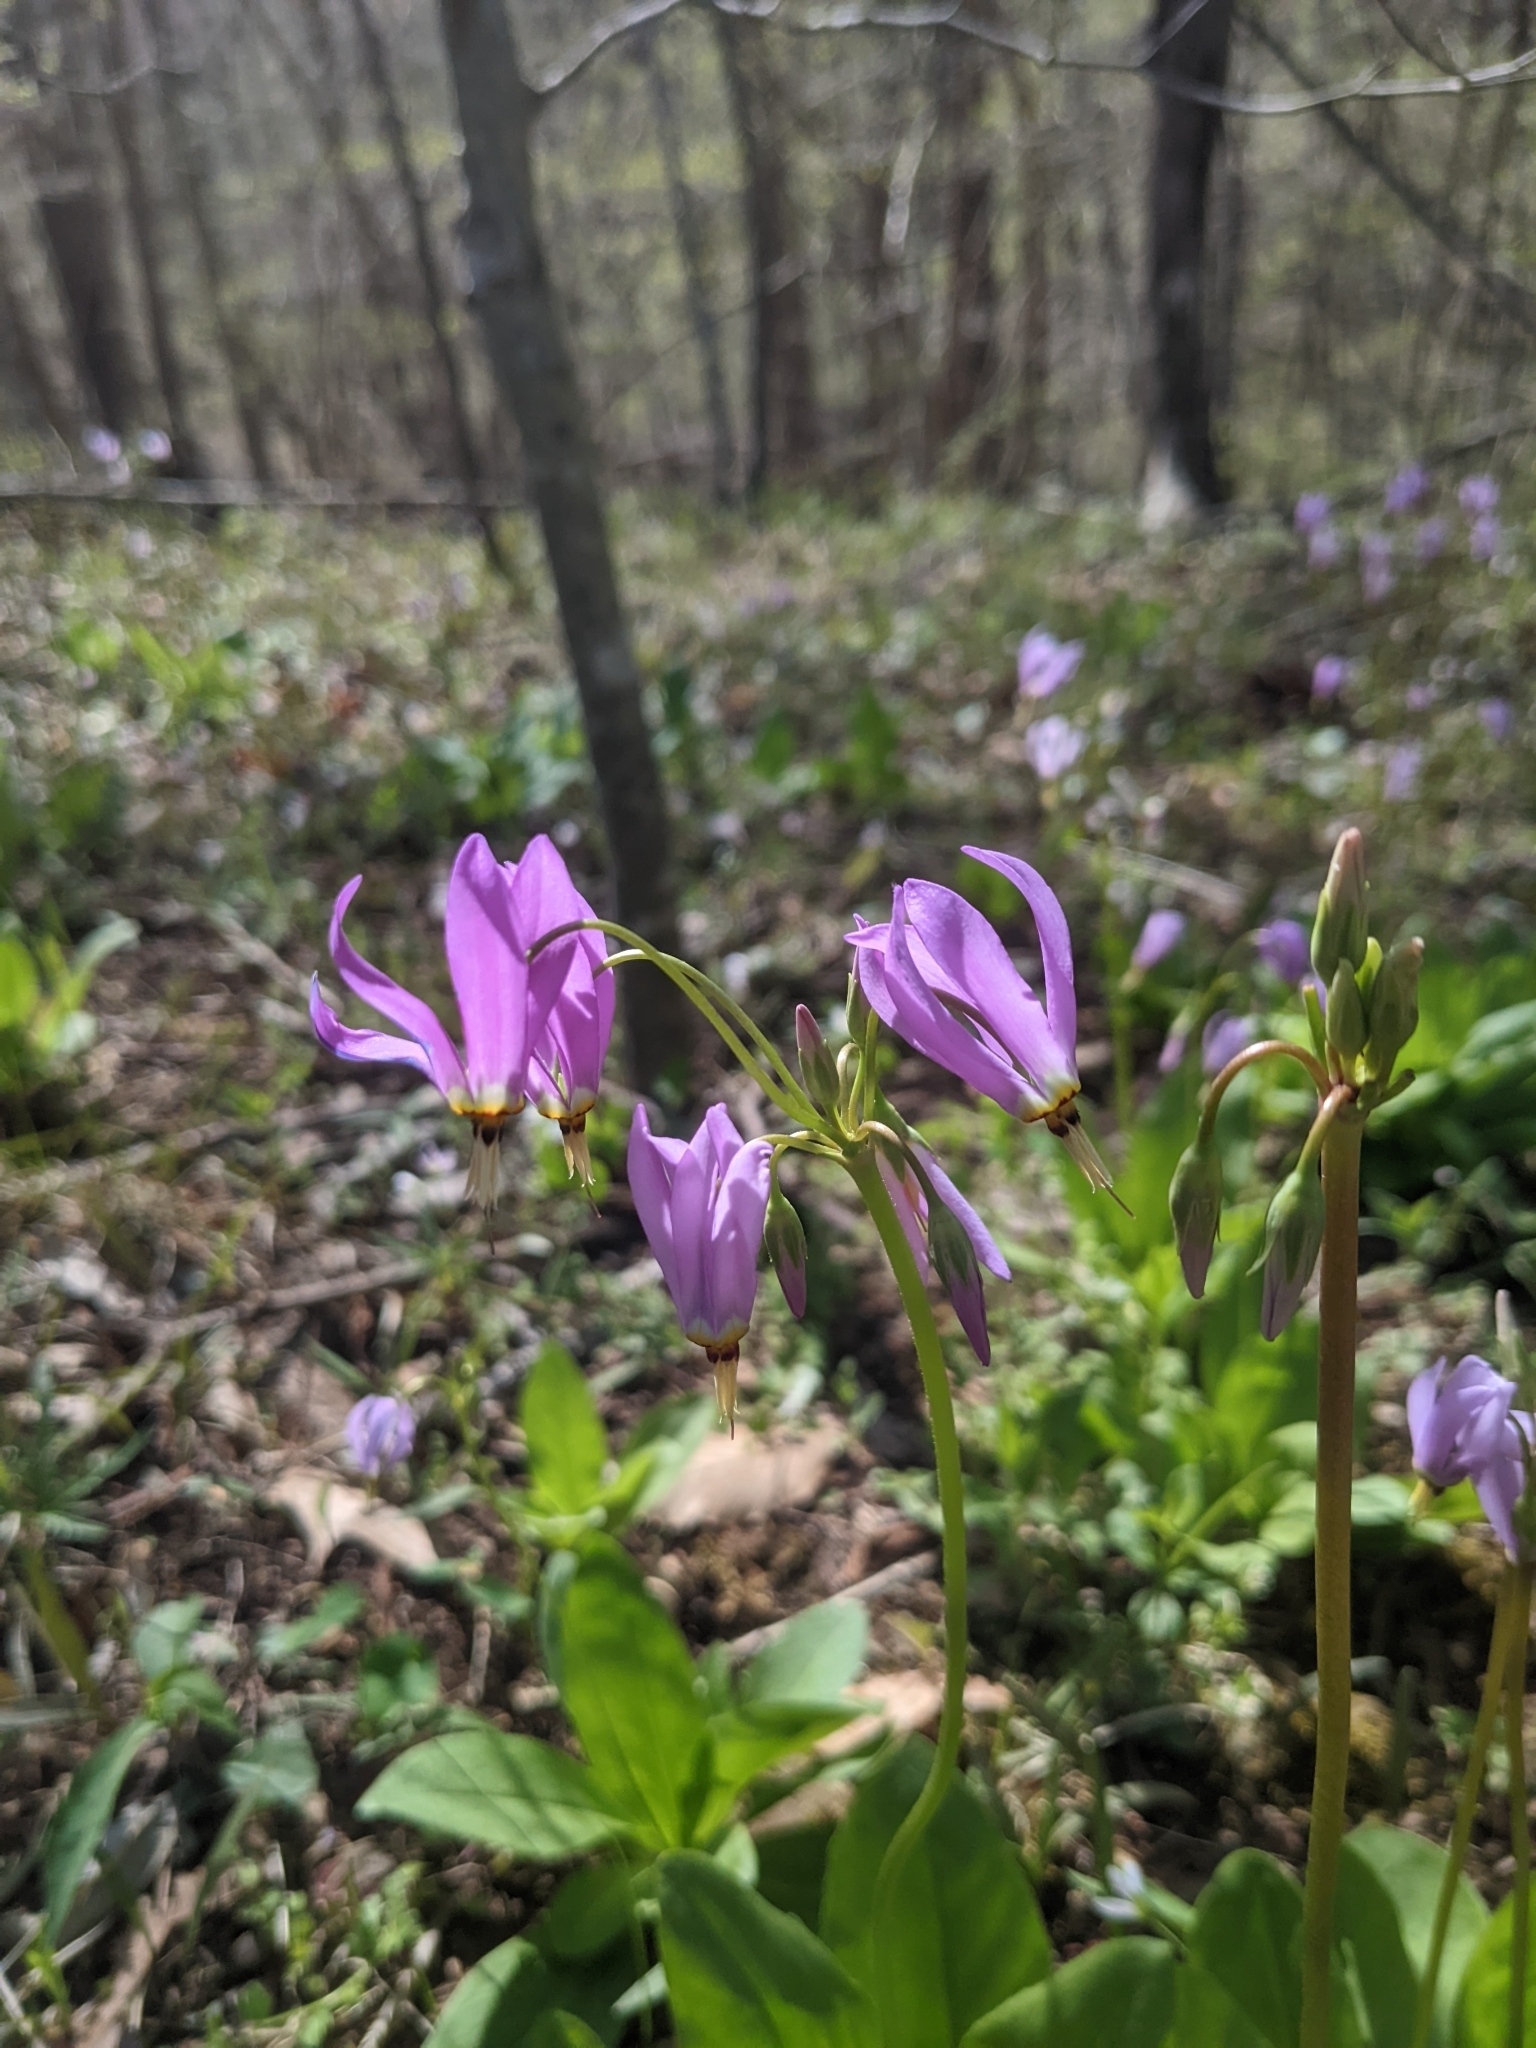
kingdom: Plantae
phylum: Tracheophyta
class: Magnoliopsida
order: Ericales
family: Primulaceae
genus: Dodecatheon
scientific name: Dodecatheon meadia
